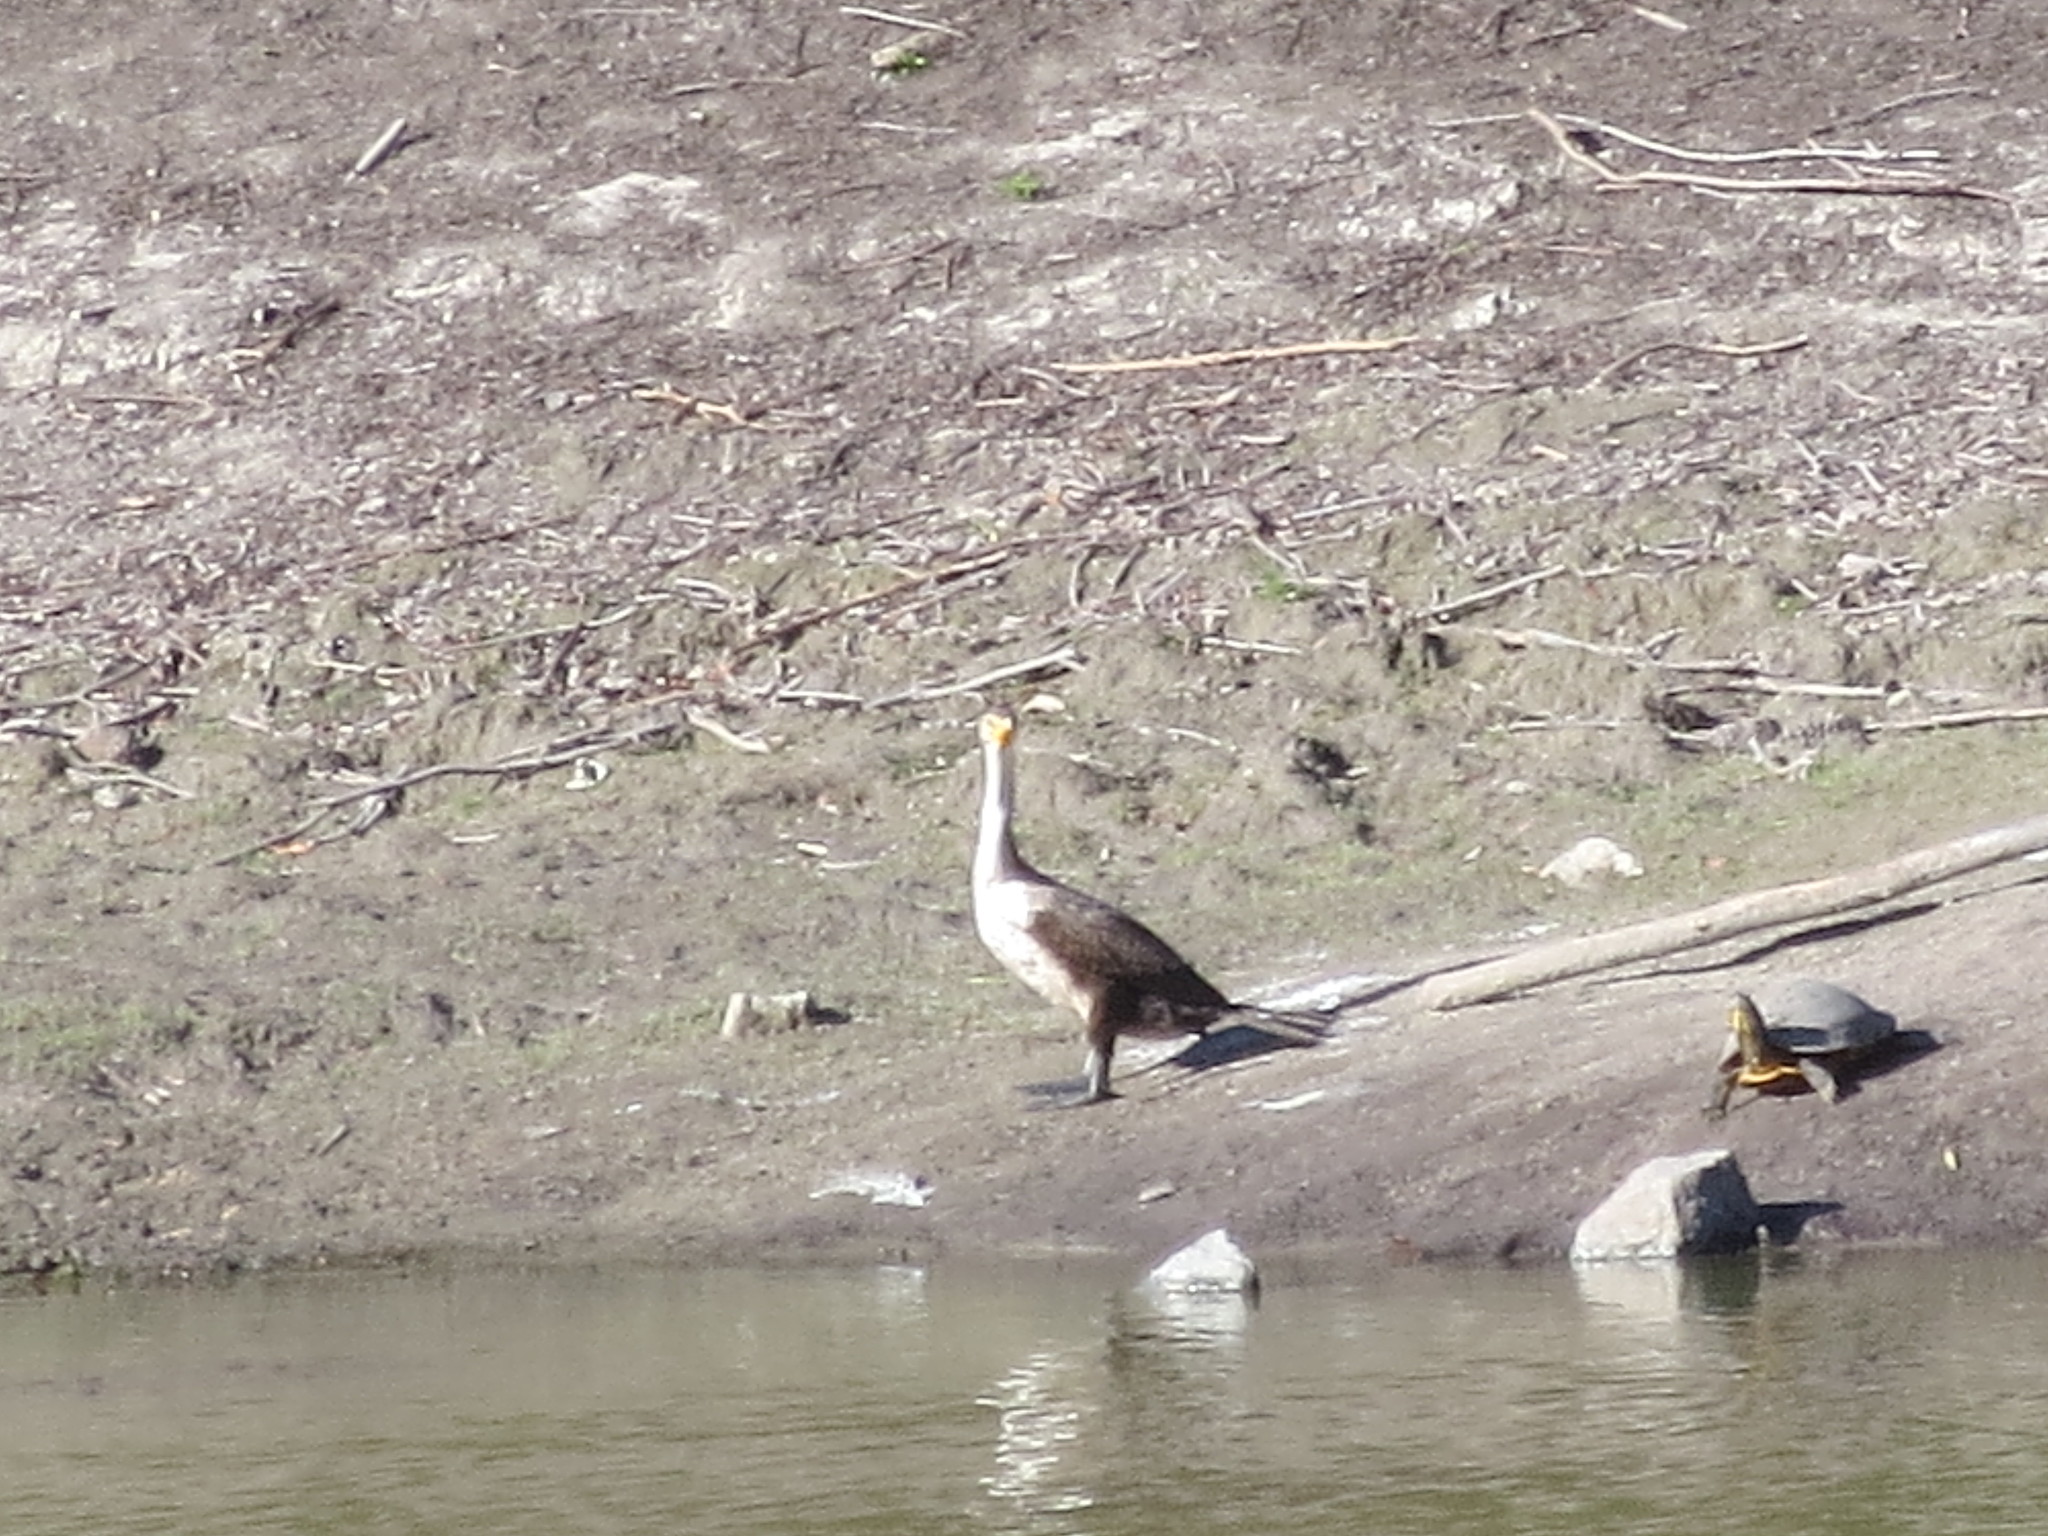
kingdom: Animalia
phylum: Chordata
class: Aves
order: Suliformes
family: Phalacrocoracidae
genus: Phalacrocorax
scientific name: Phalacrocorax auritus
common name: Double-crested cormorant
